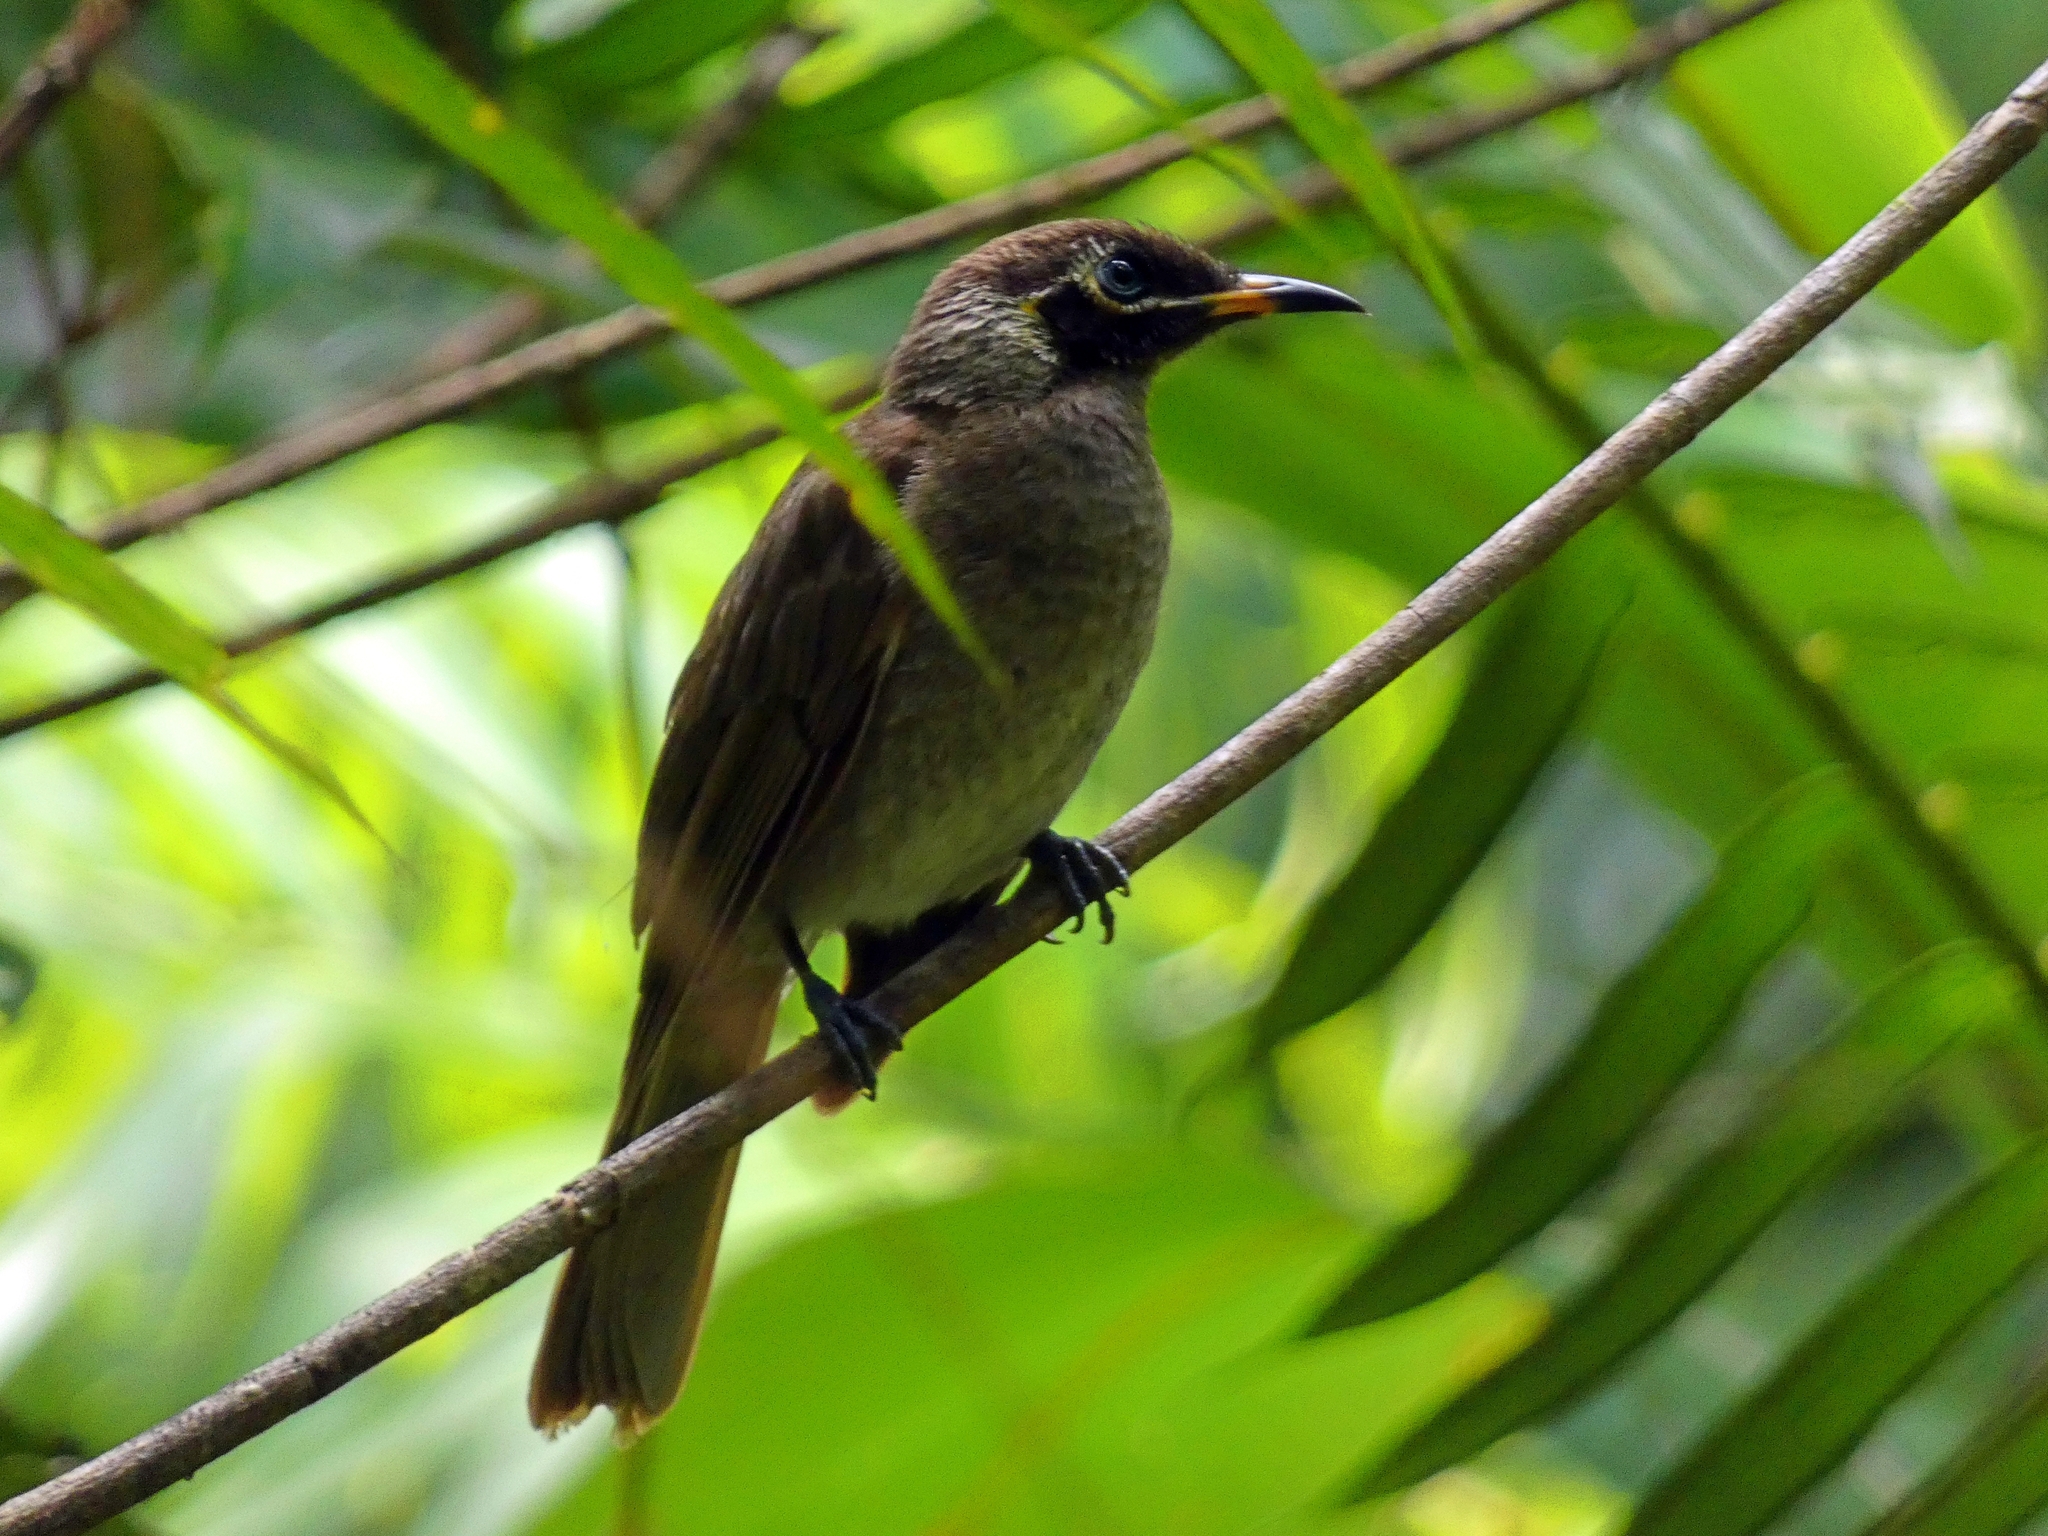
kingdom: Animalia
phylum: Chordata
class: Aves
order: Passeriformes
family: Meliphagidae
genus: Bolemoreus
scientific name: Bolemoreus frenatus
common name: Bridled honeyeater
